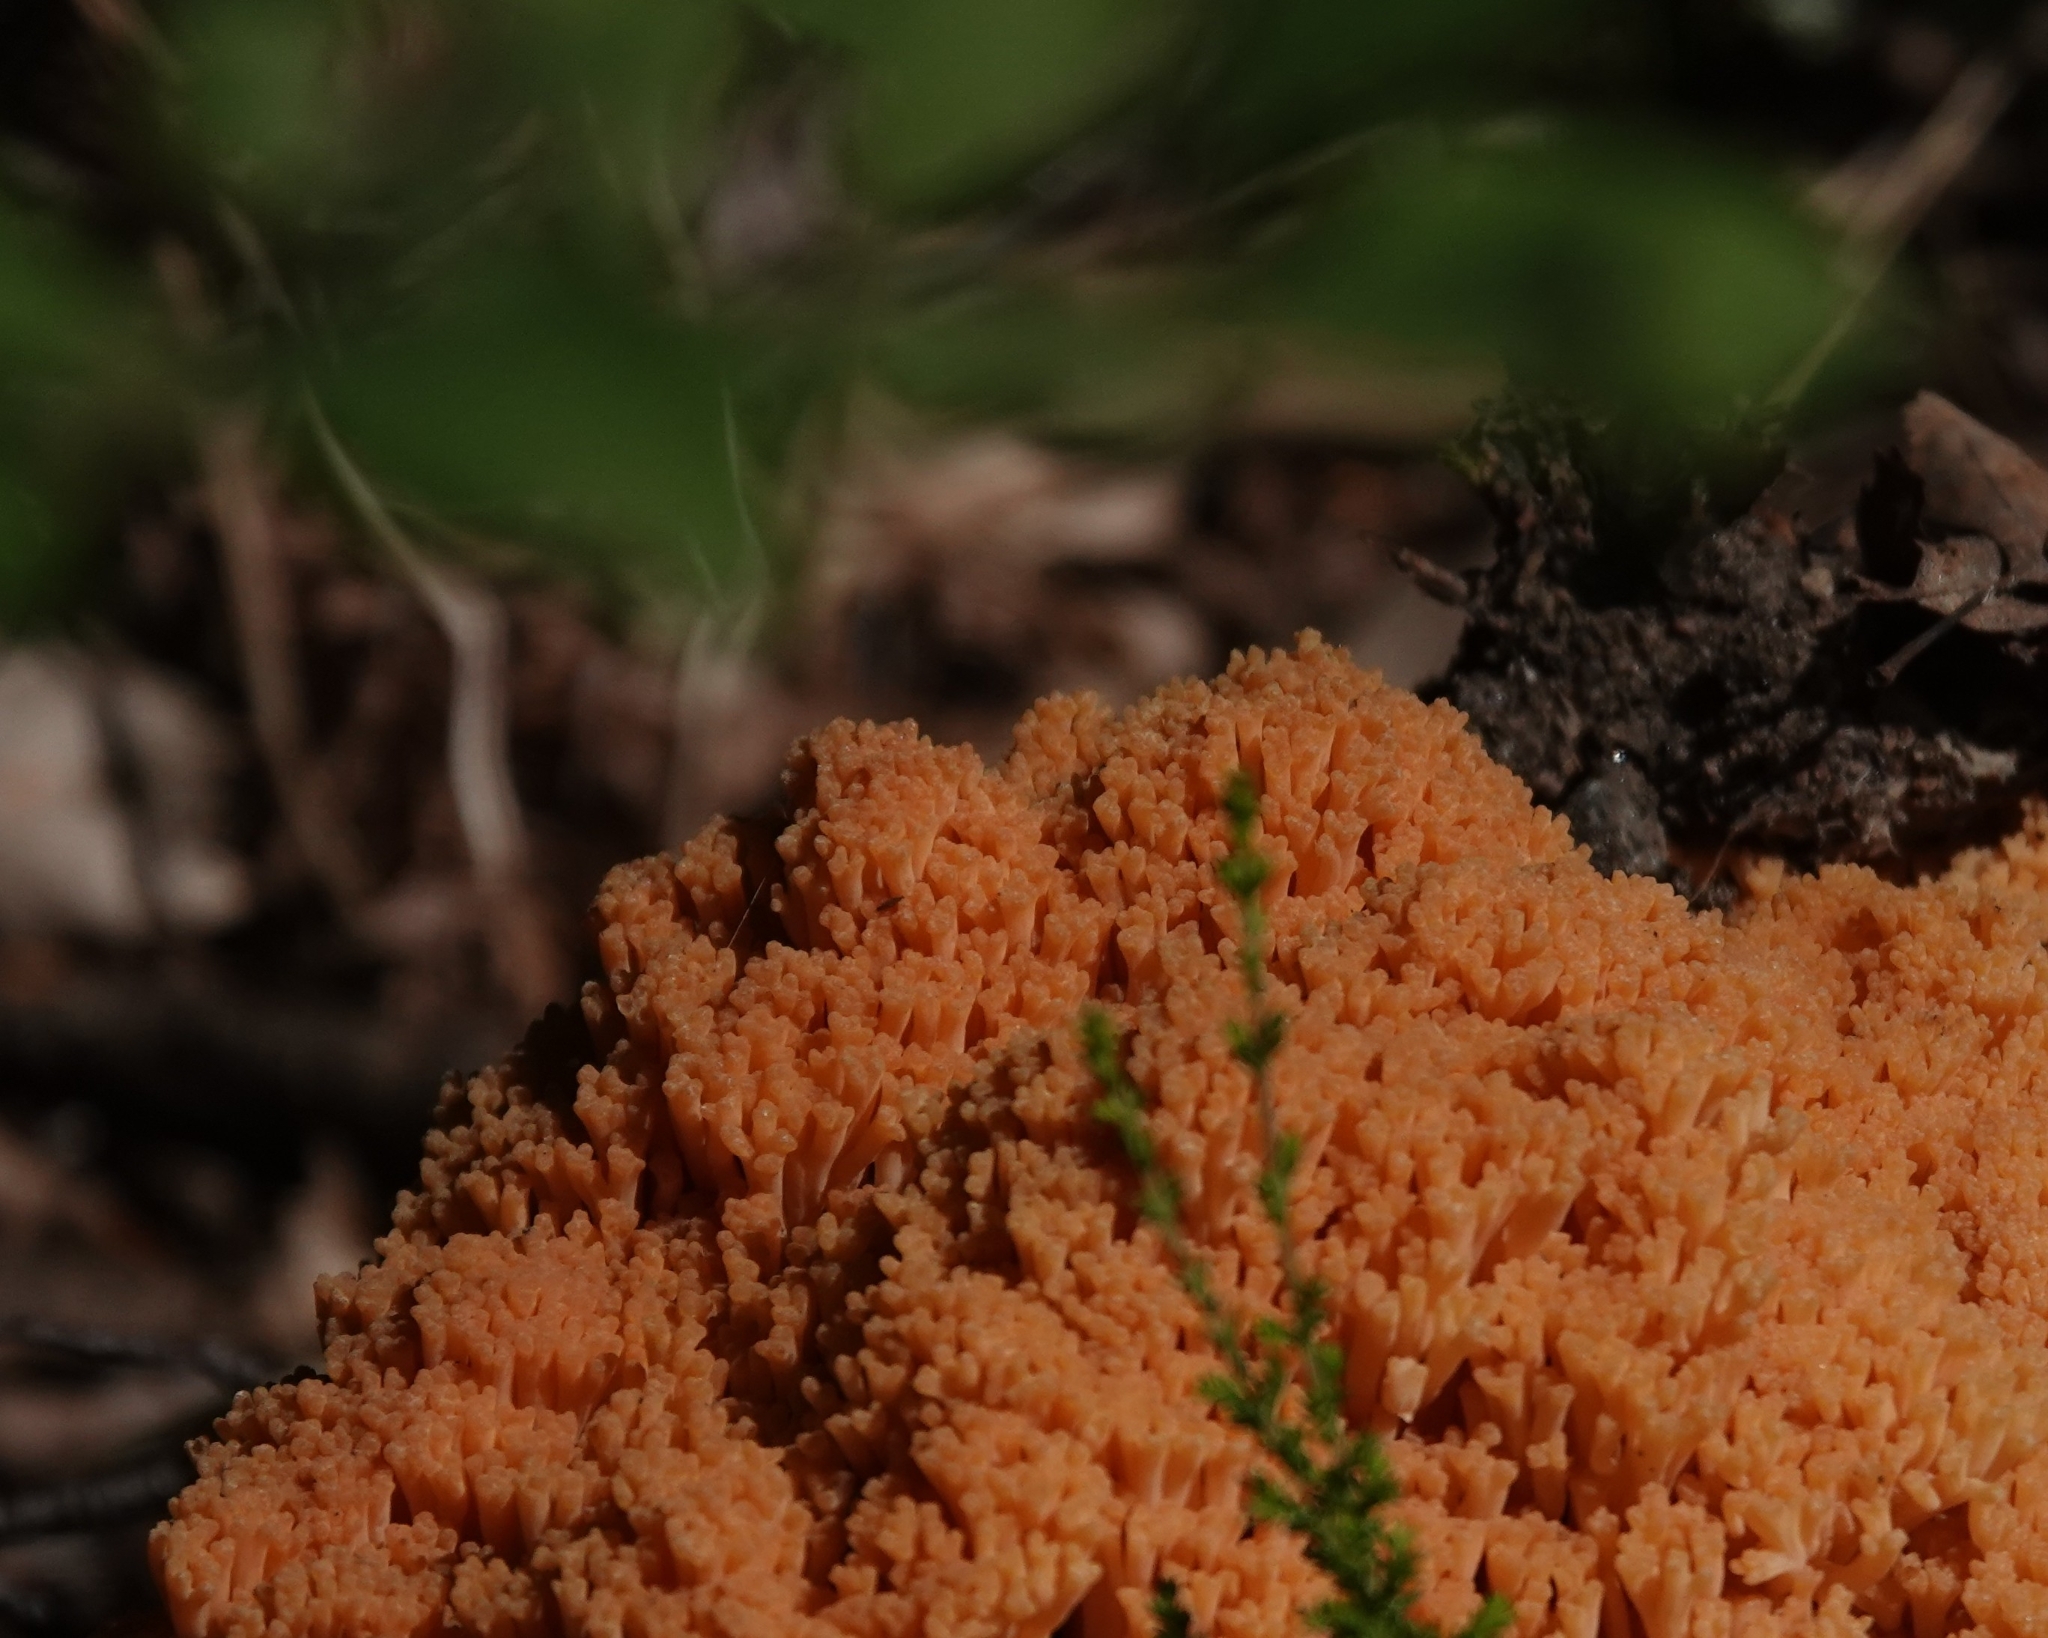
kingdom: Fungi
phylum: Basidiomycota
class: Agaricomycetes
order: Gomphales
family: Gomphaceae
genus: Ramaria
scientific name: Ramaria boreimaxima
